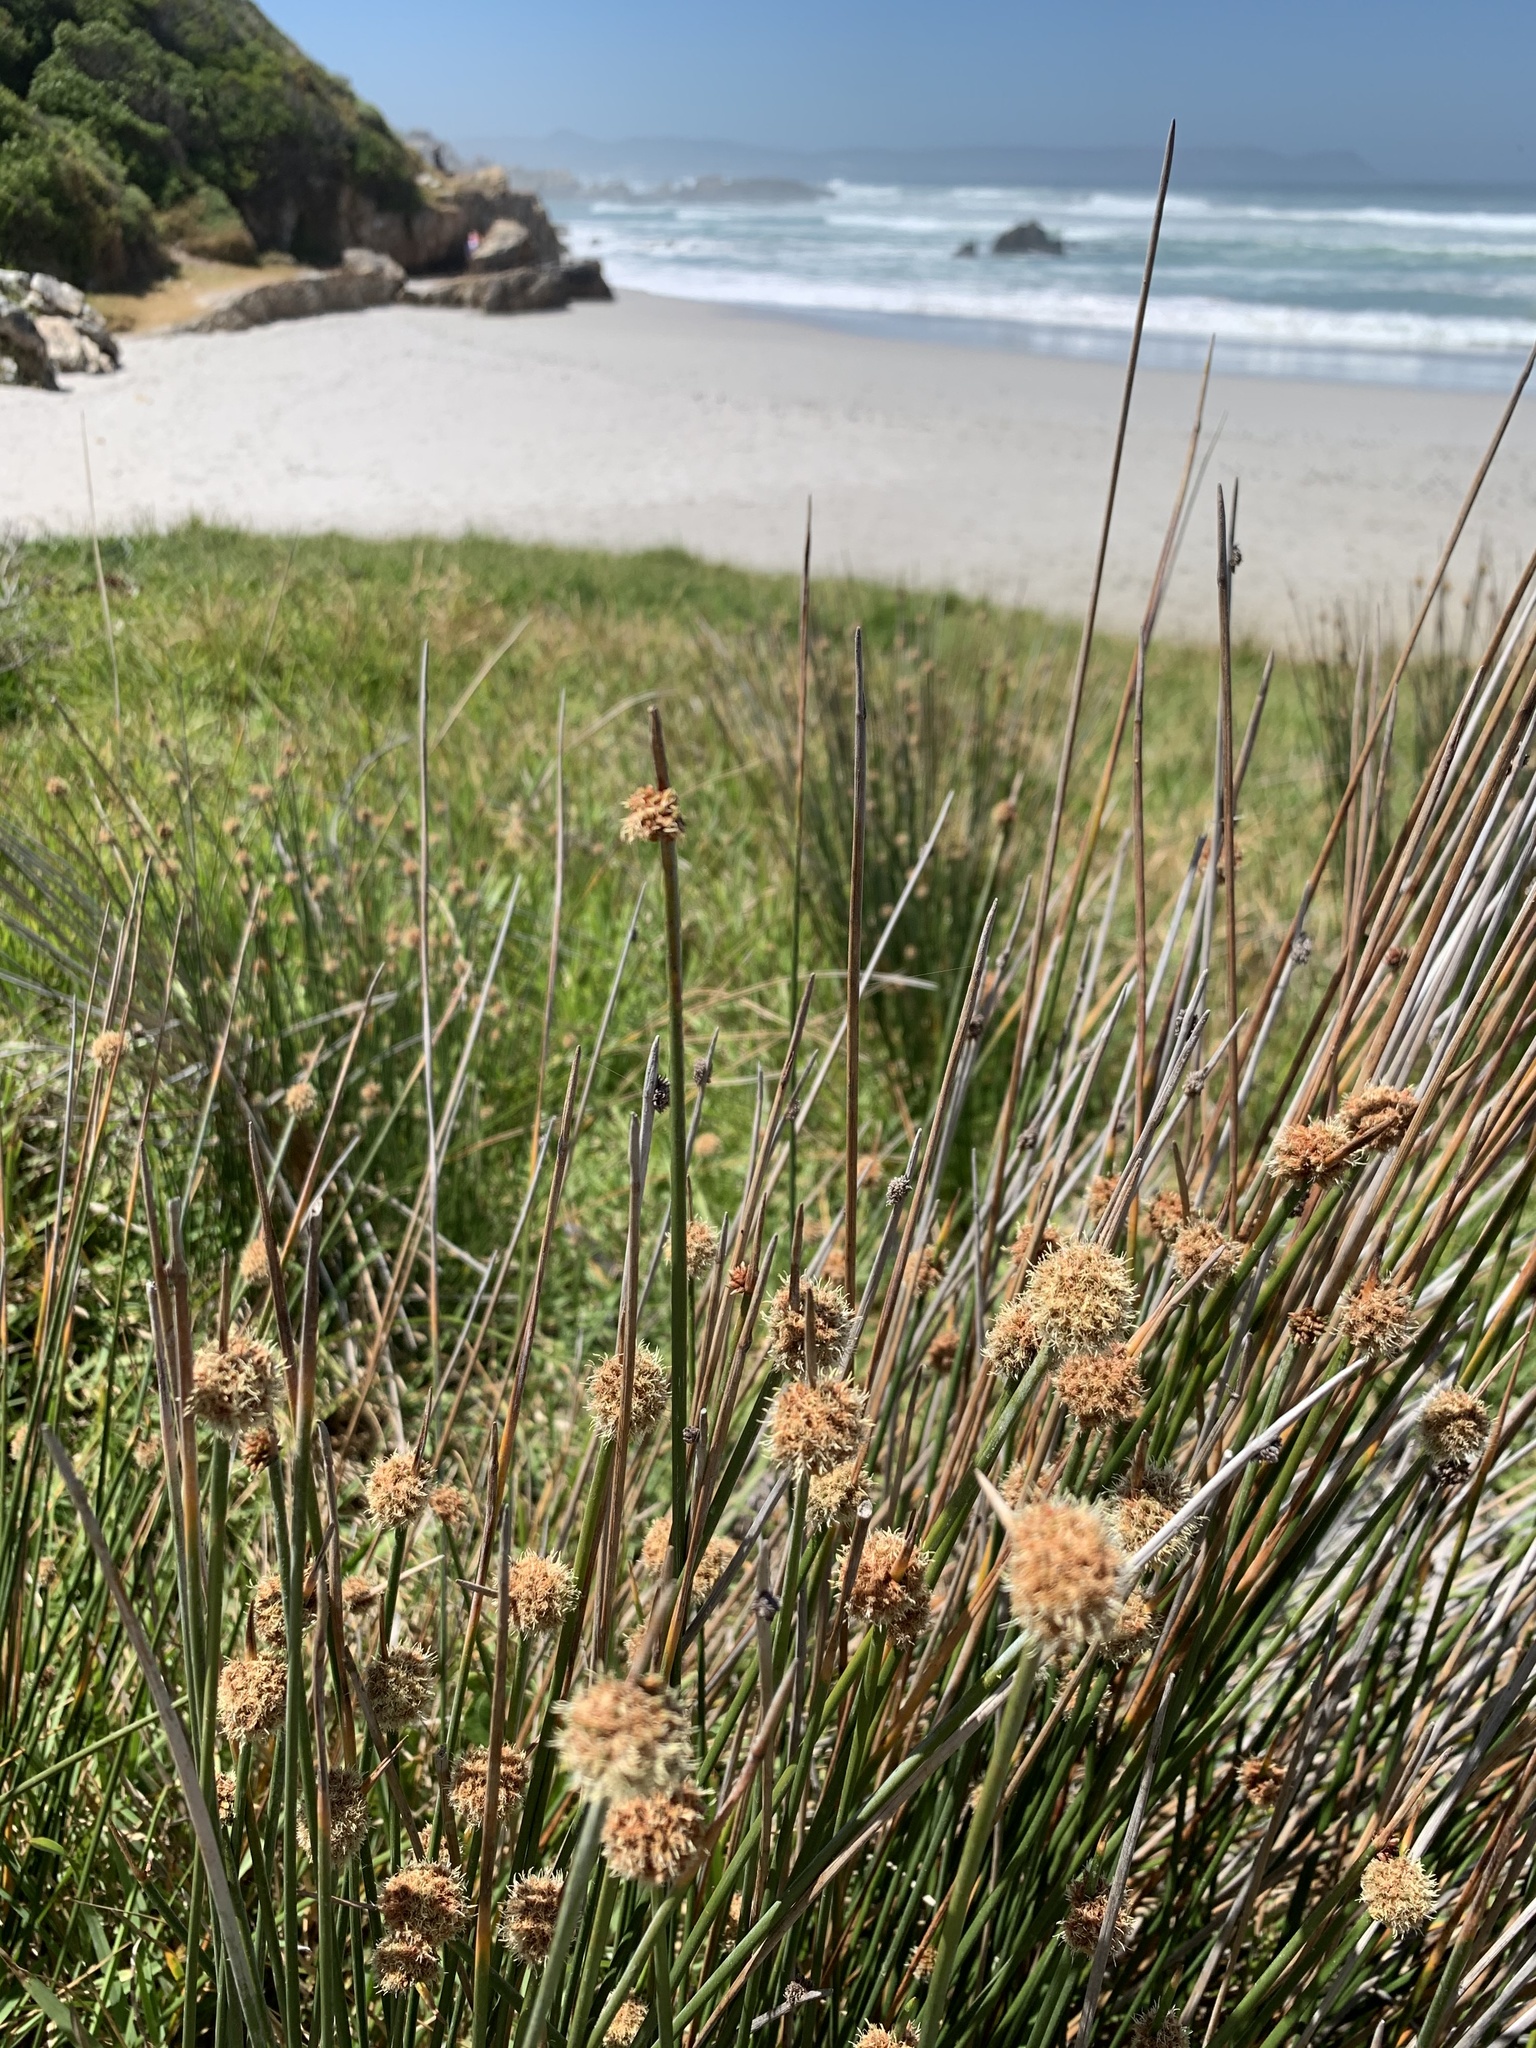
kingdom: Plantae
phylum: Tracheophyta
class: Liliopsida
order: Poales
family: Cyperaceae
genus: Ficinia
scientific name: Ficinia nodosa
